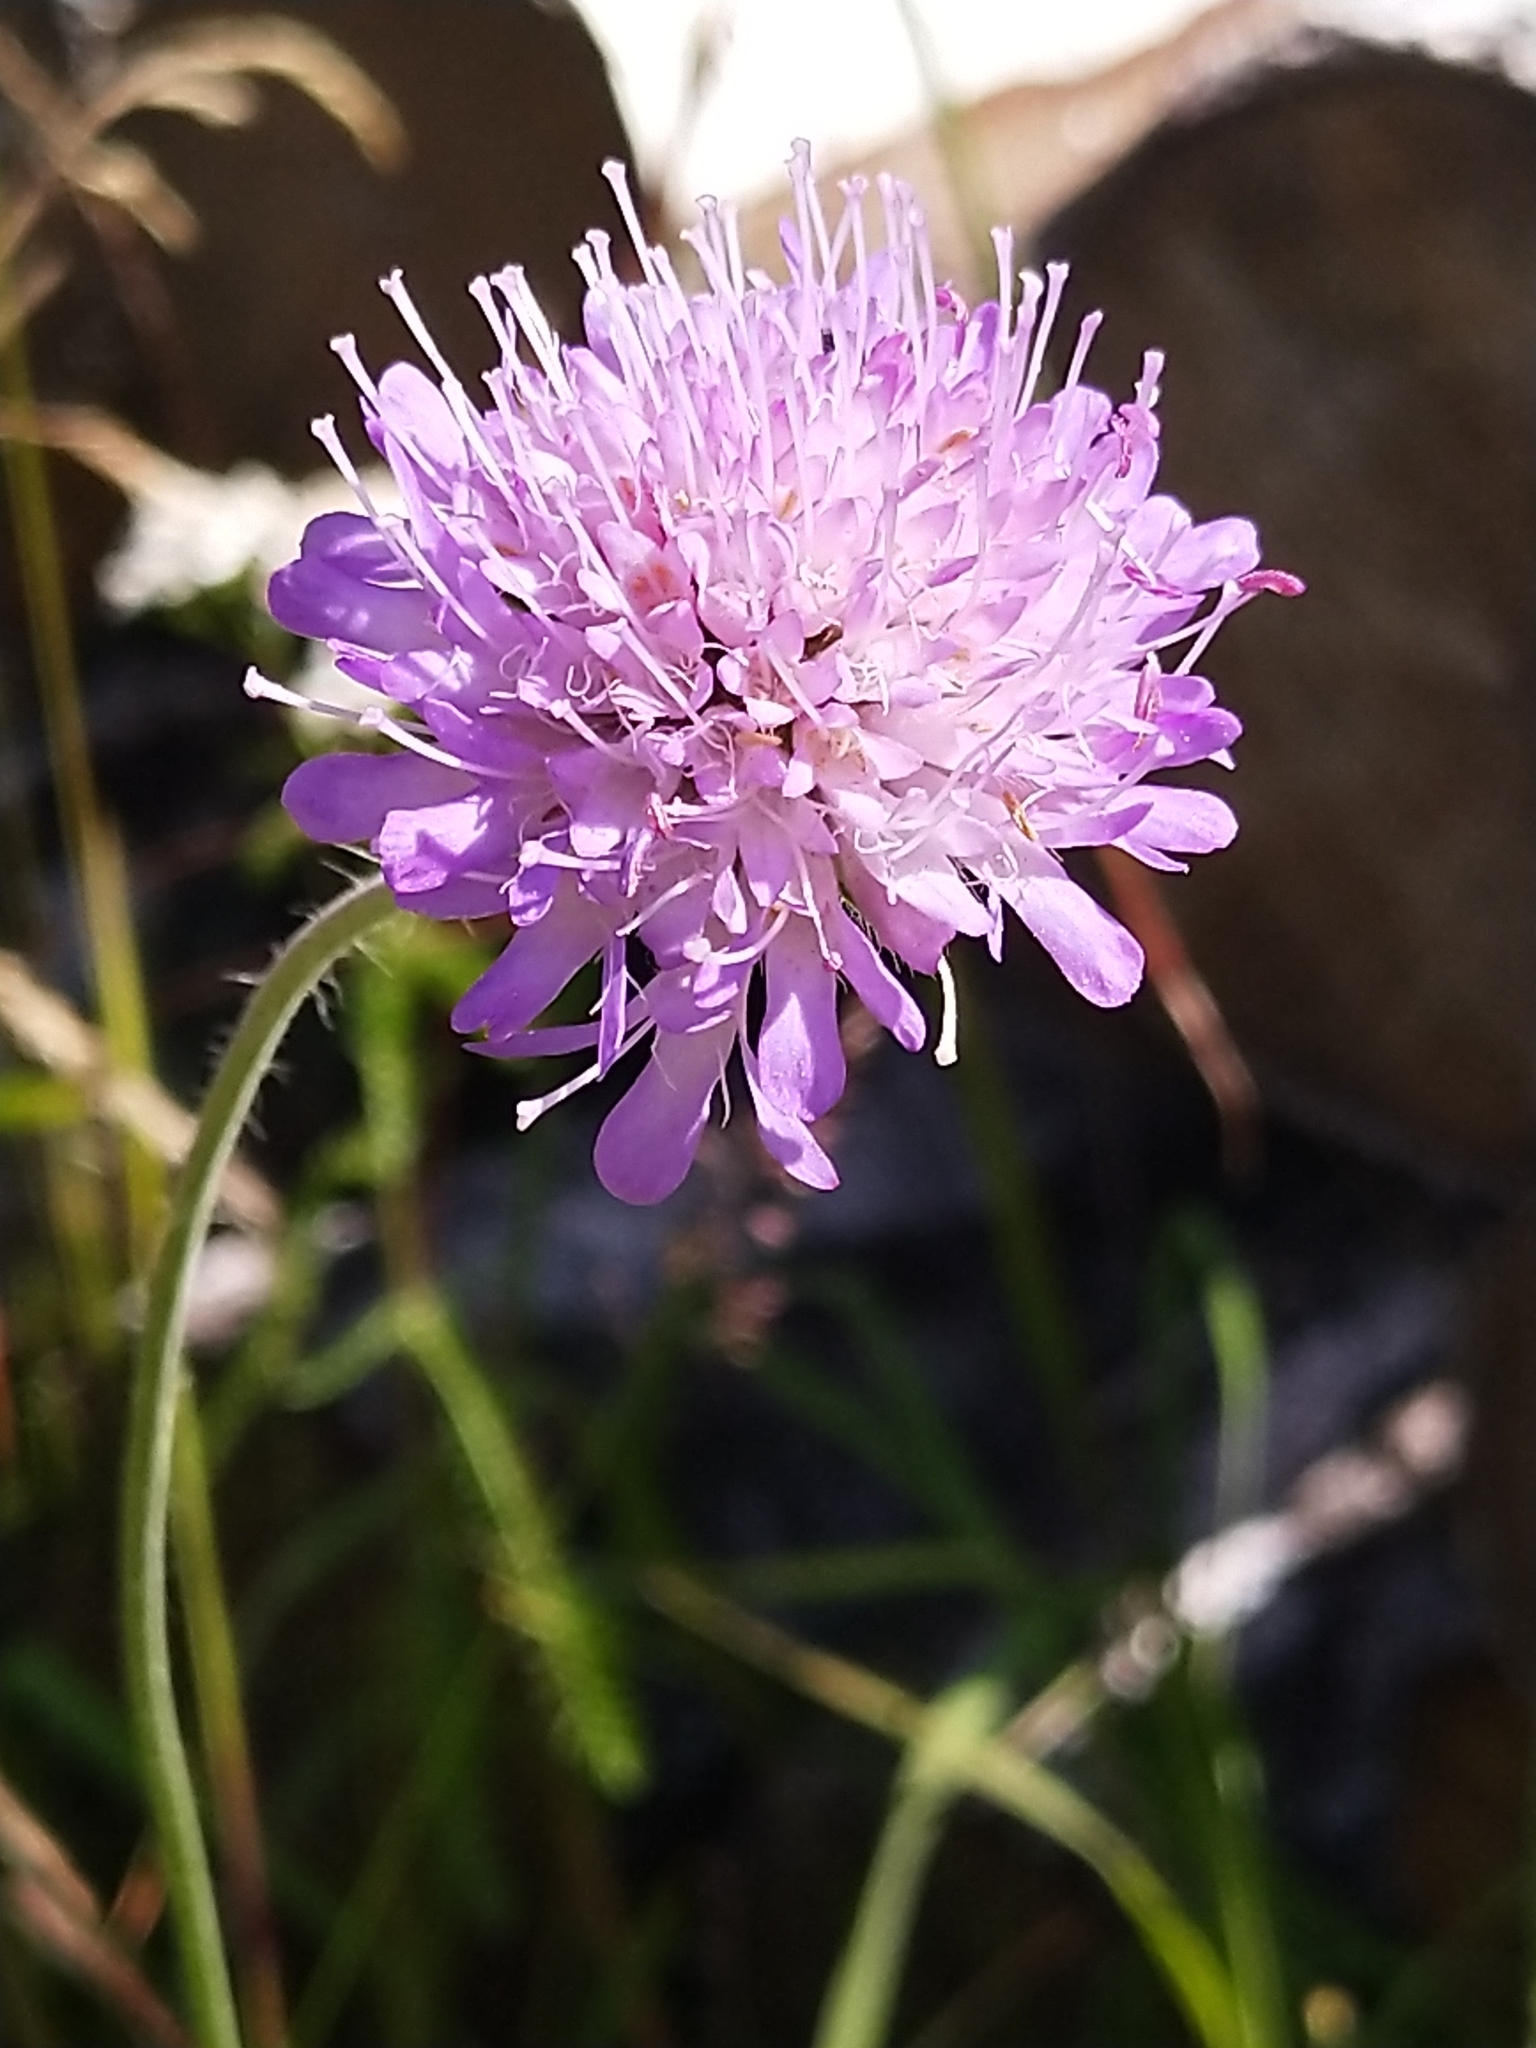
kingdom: Plantae
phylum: Tracheophyta
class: Magnoliopsida
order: Dipsacales
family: Caprifoliaceae
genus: Knautia
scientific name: Knautia arvensis
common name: Field scabiosa
